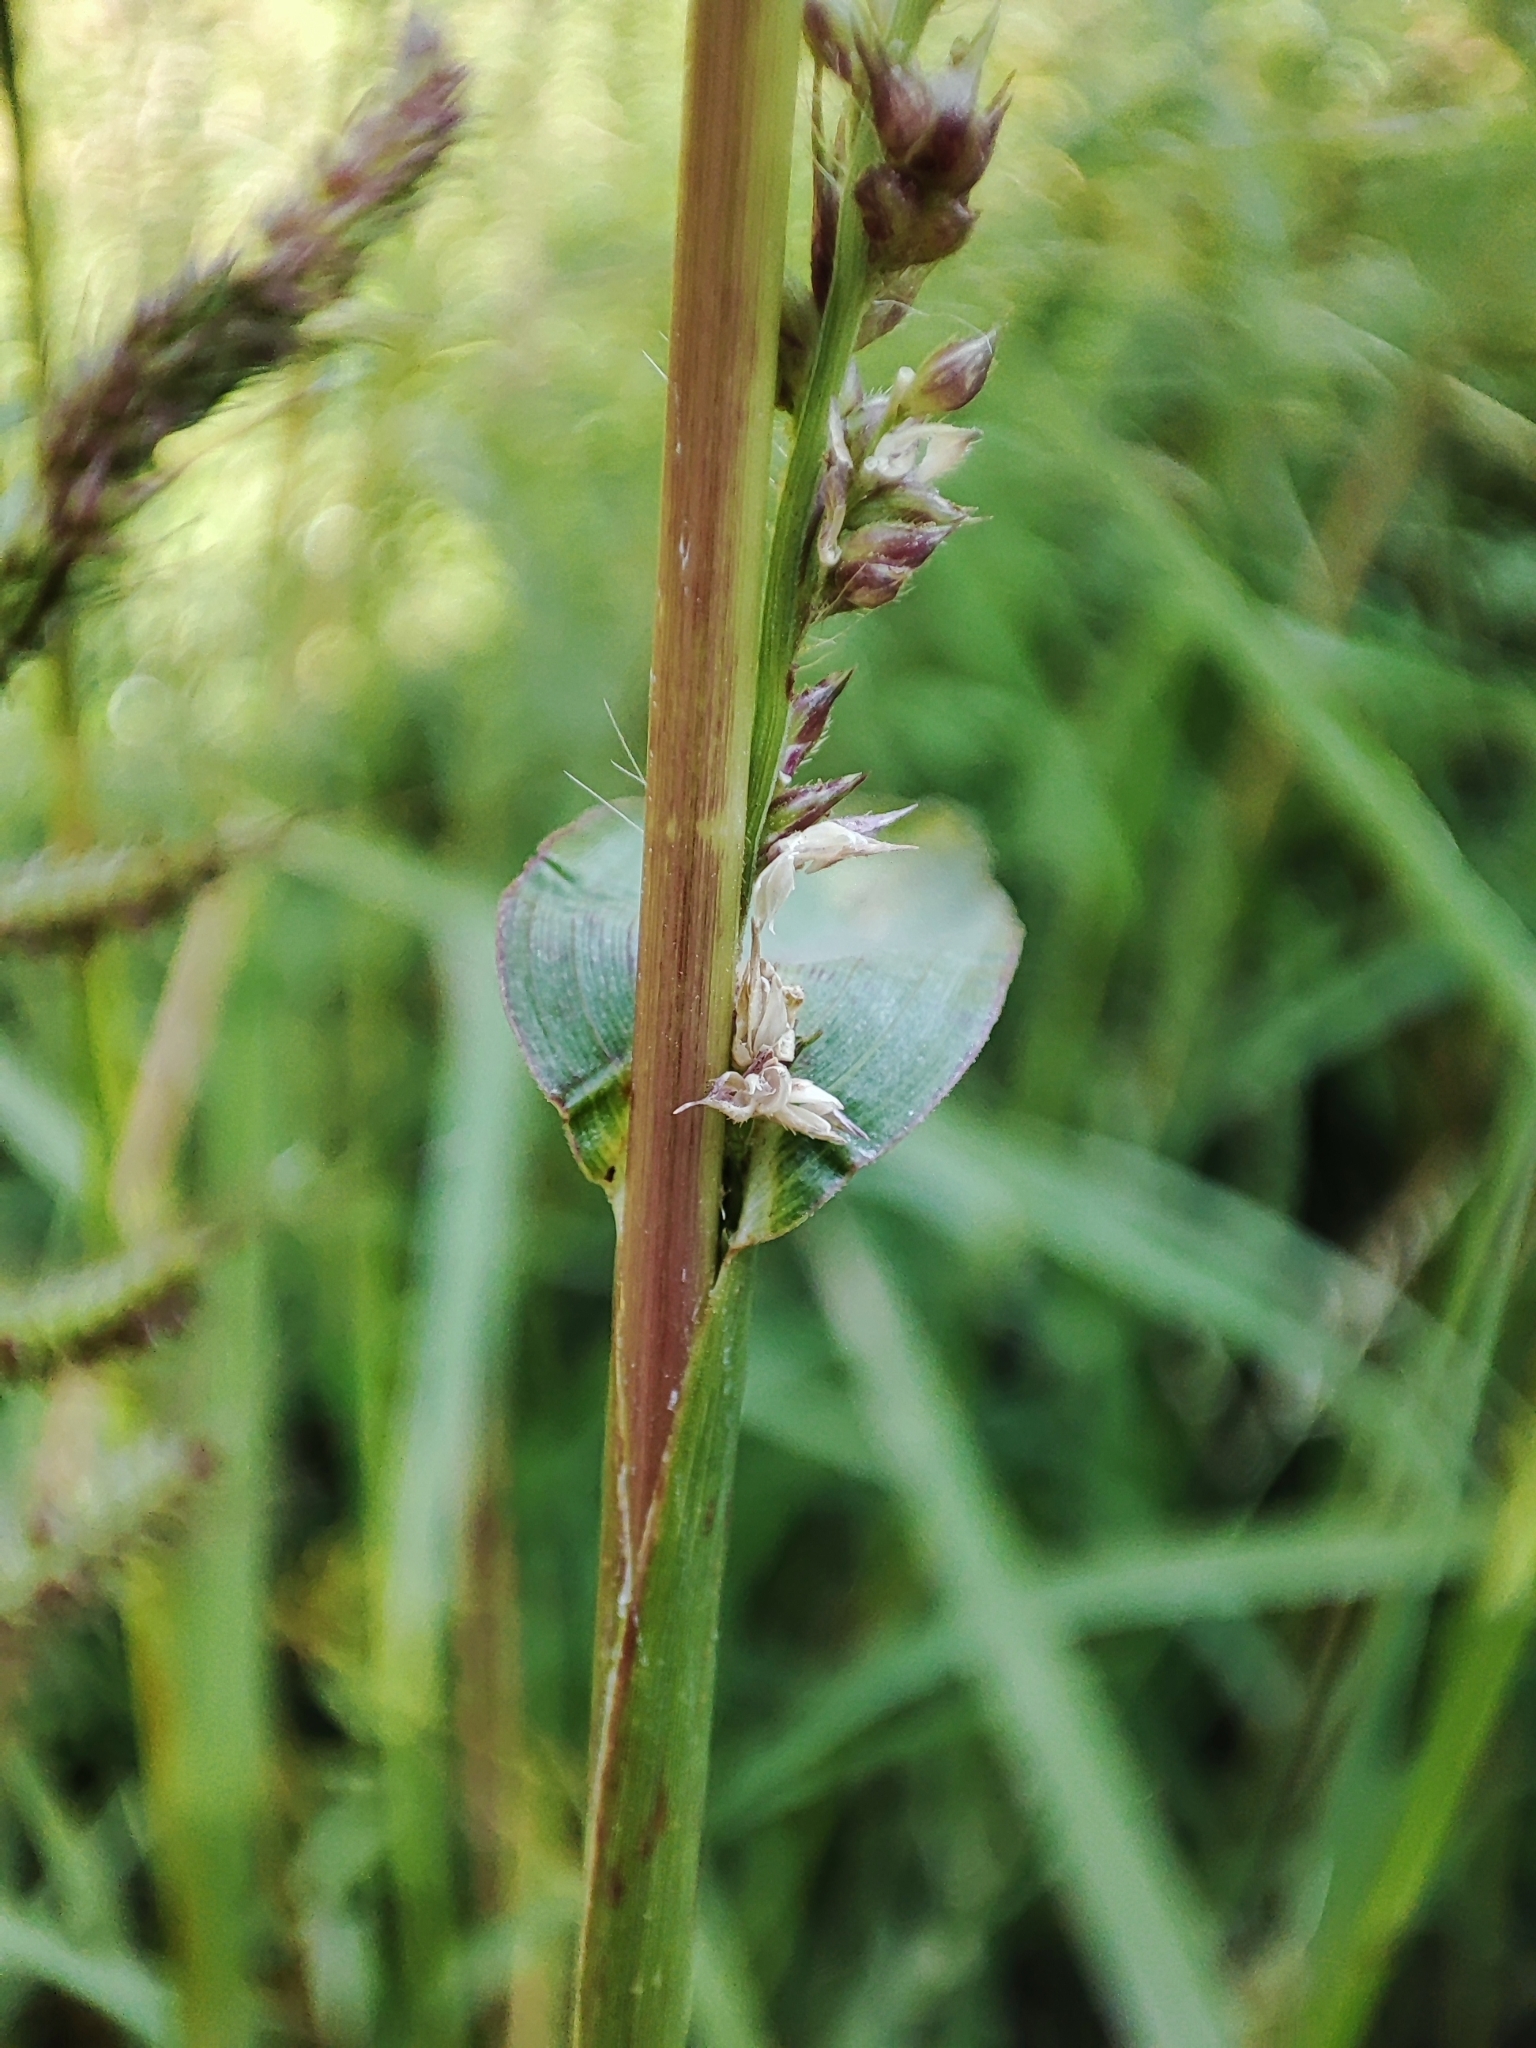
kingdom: Plantae
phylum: Tracheophyta
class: Liliopsida
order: Poales
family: Poaceae
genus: Echinochloa
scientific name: Echinochloa crus-galli
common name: Cockspur
